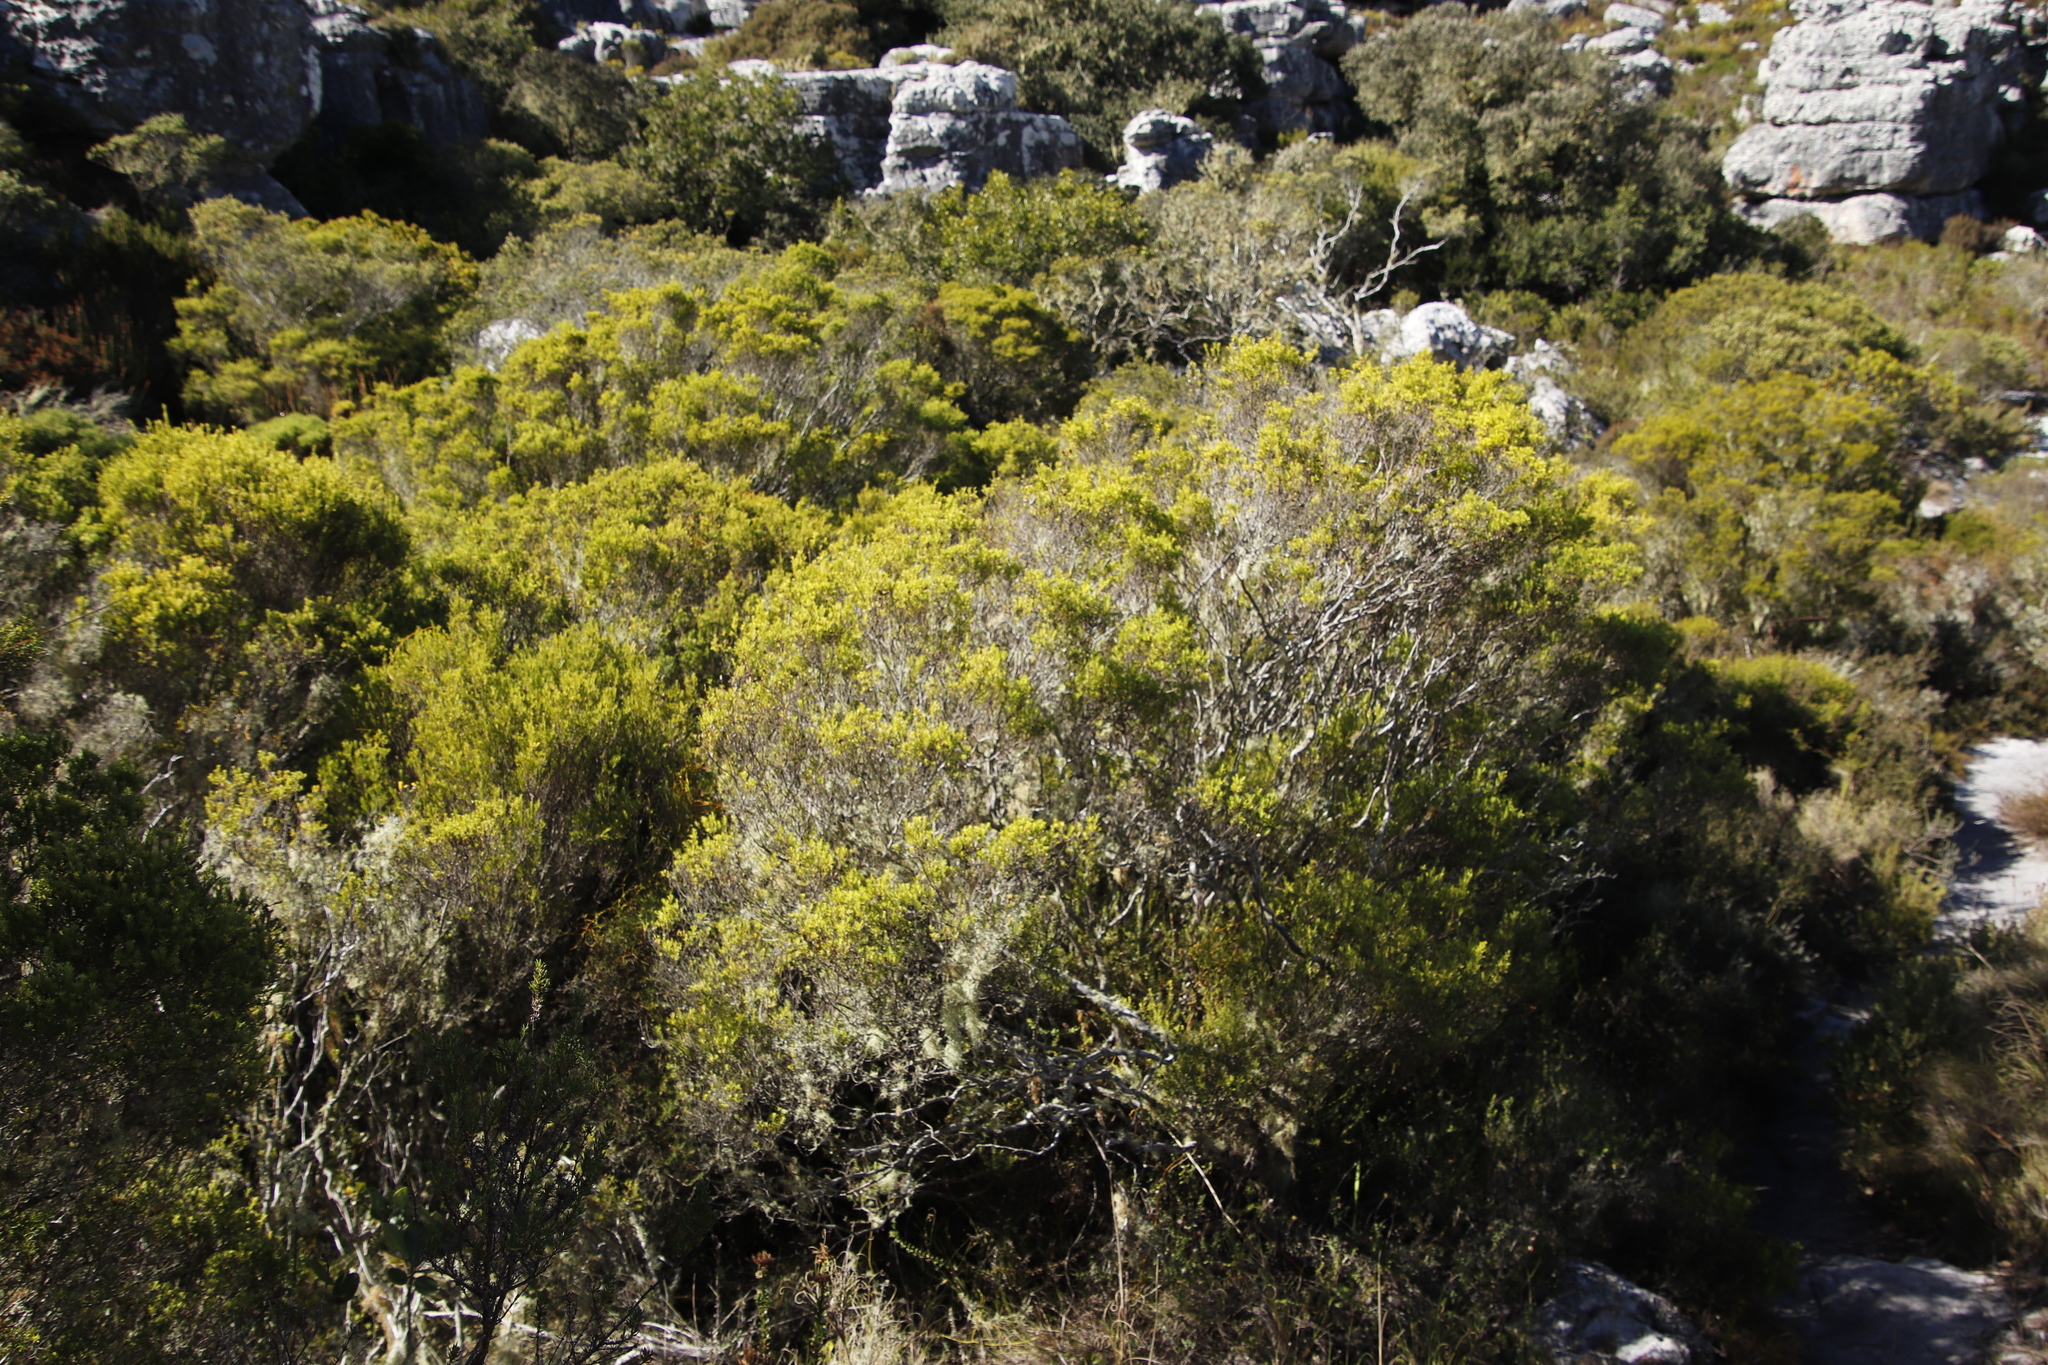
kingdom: Plantae
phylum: Tracheophyta
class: Magnoliopsida
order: Sapindales
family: Rutaceae
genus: Coleonema
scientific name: Coleonema album
